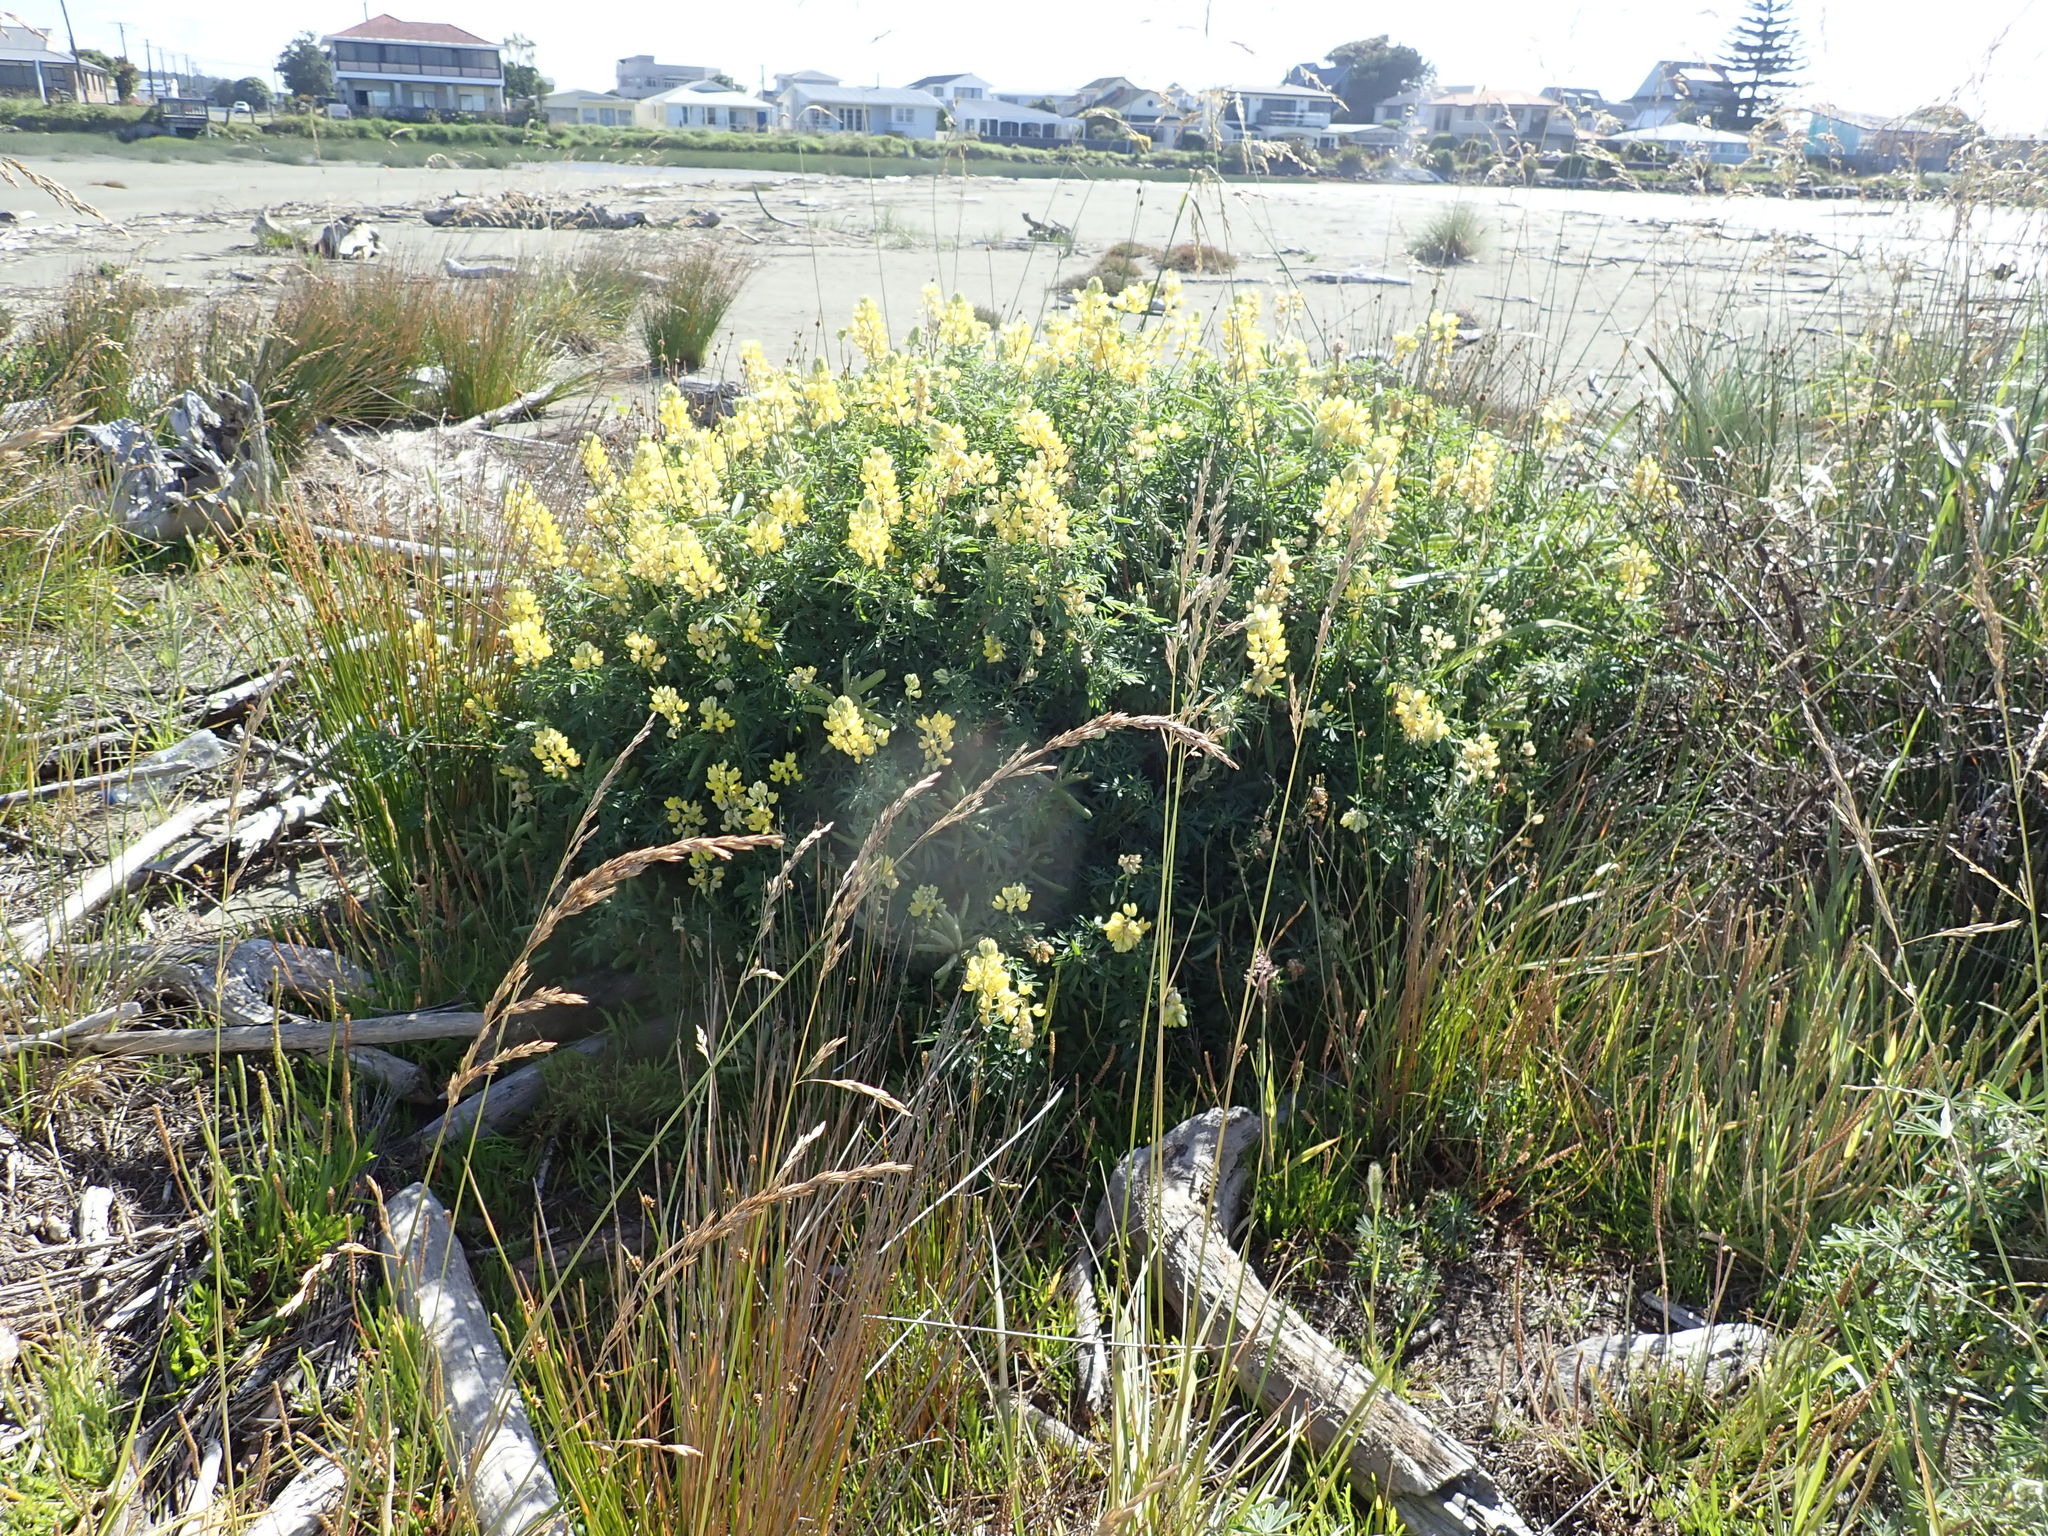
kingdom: Plantae
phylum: Tracheophyta
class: Magnoliopsida
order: Fabales
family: Fabaceae
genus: Lupinus
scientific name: Lupinus arboreus
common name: Yellow bush lupine
